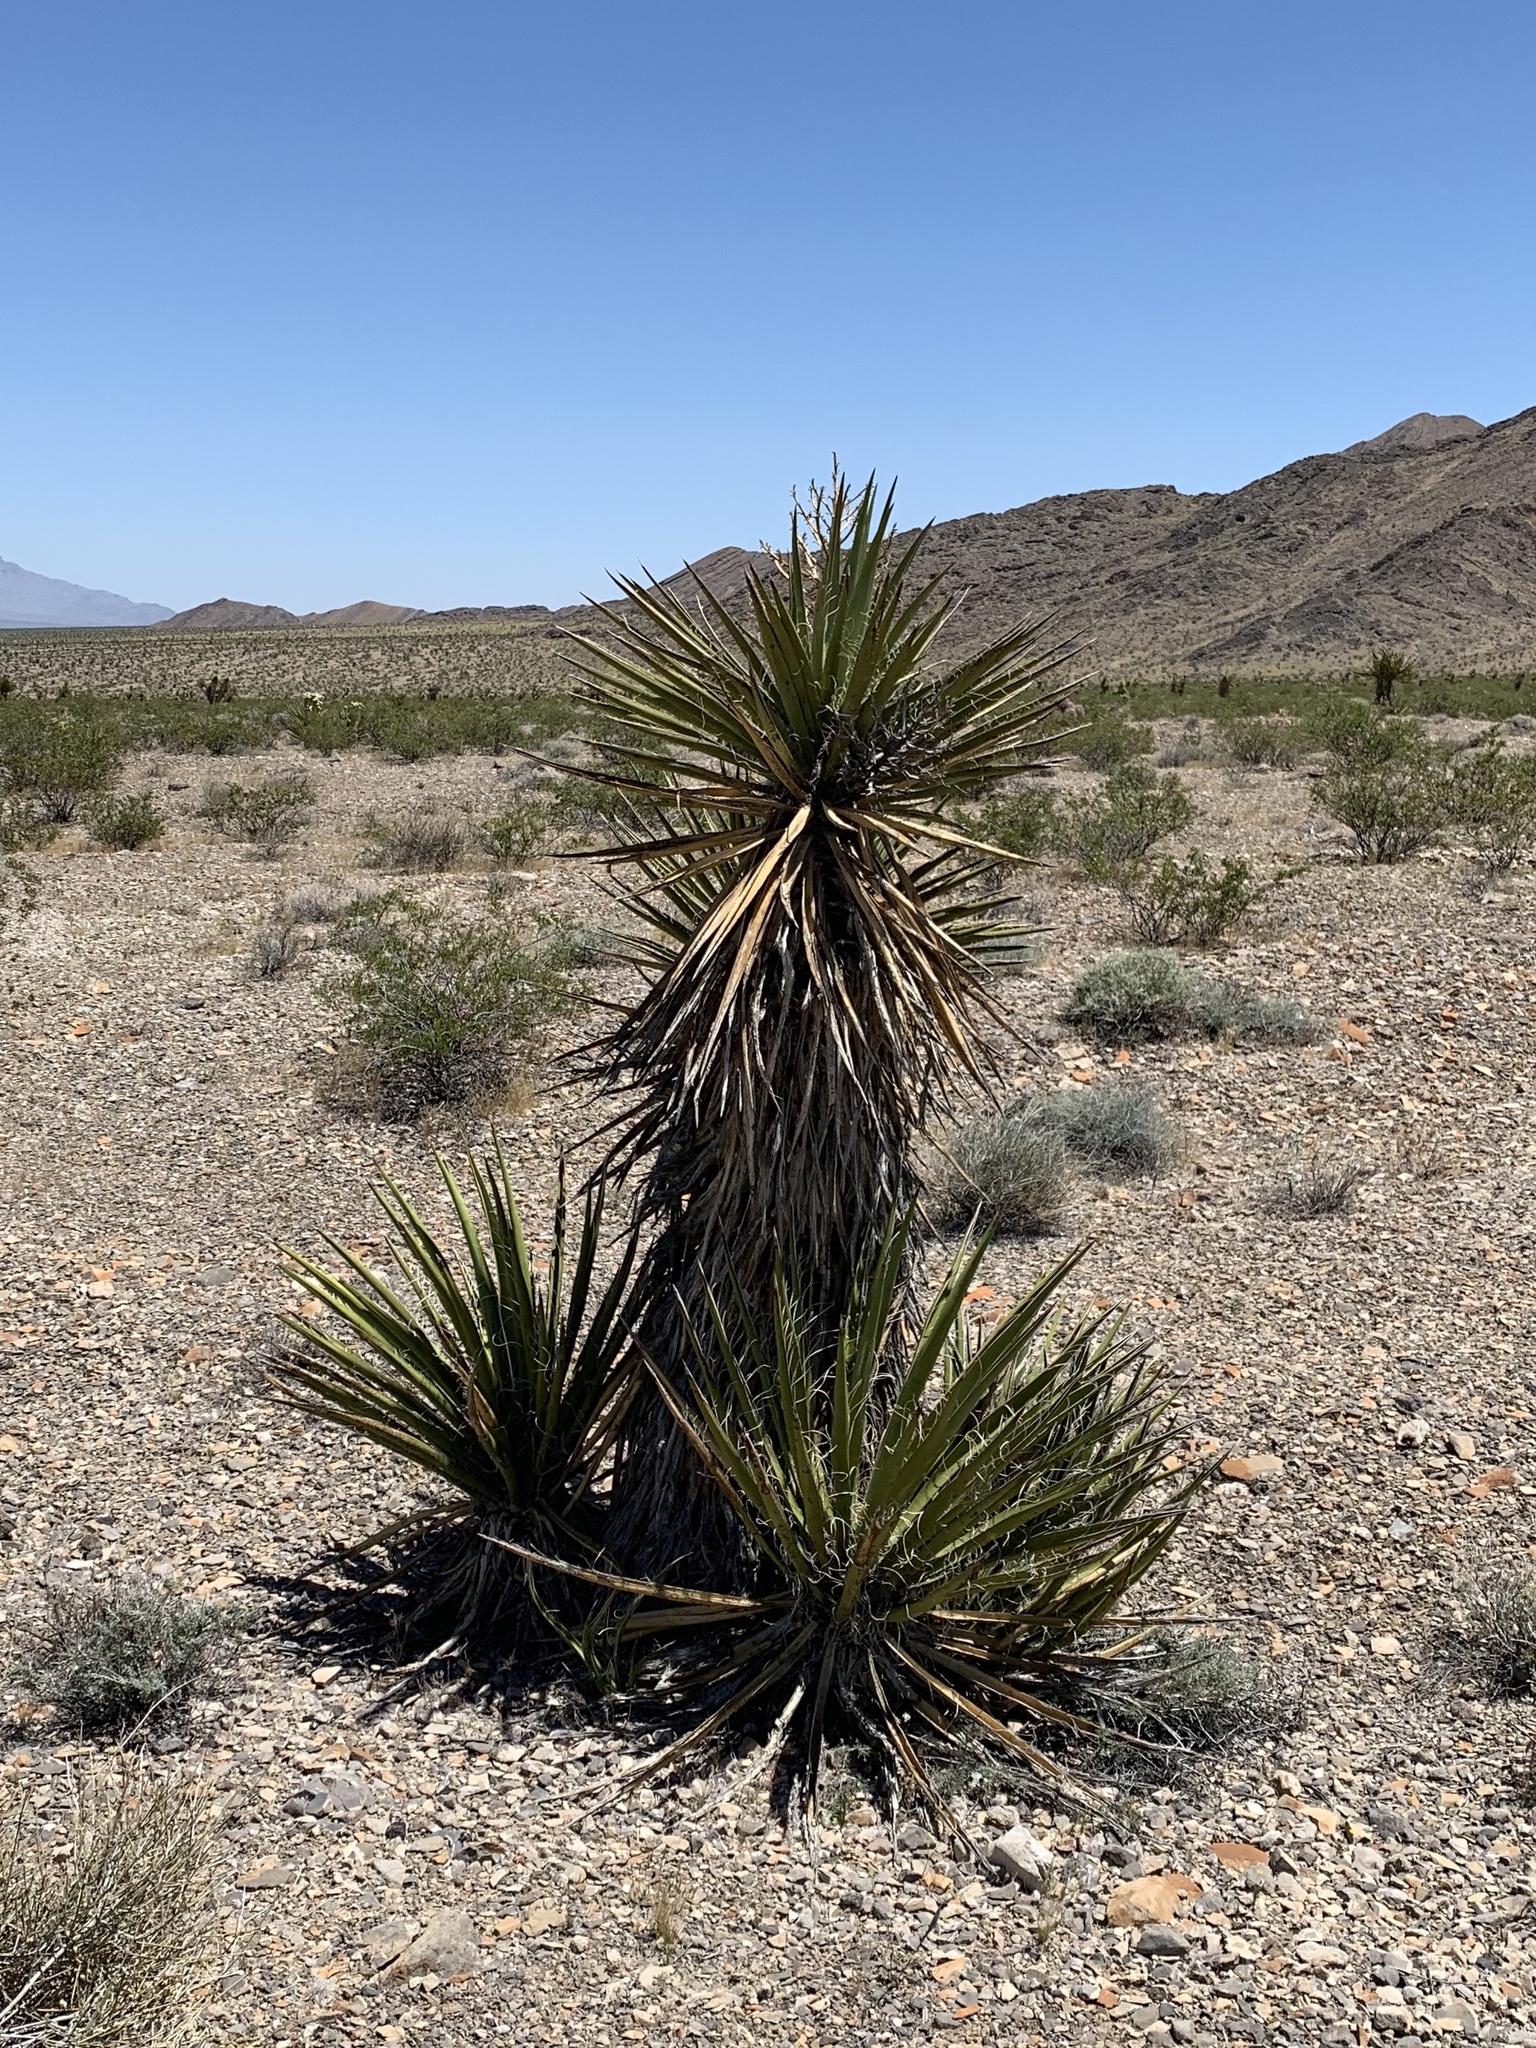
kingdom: Plantae
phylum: Tracheophyta
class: Liliopsida
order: Asparagales
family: Asparagaceae
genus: Yucca
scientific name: Yucca schidigera
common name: Mojave yucca
